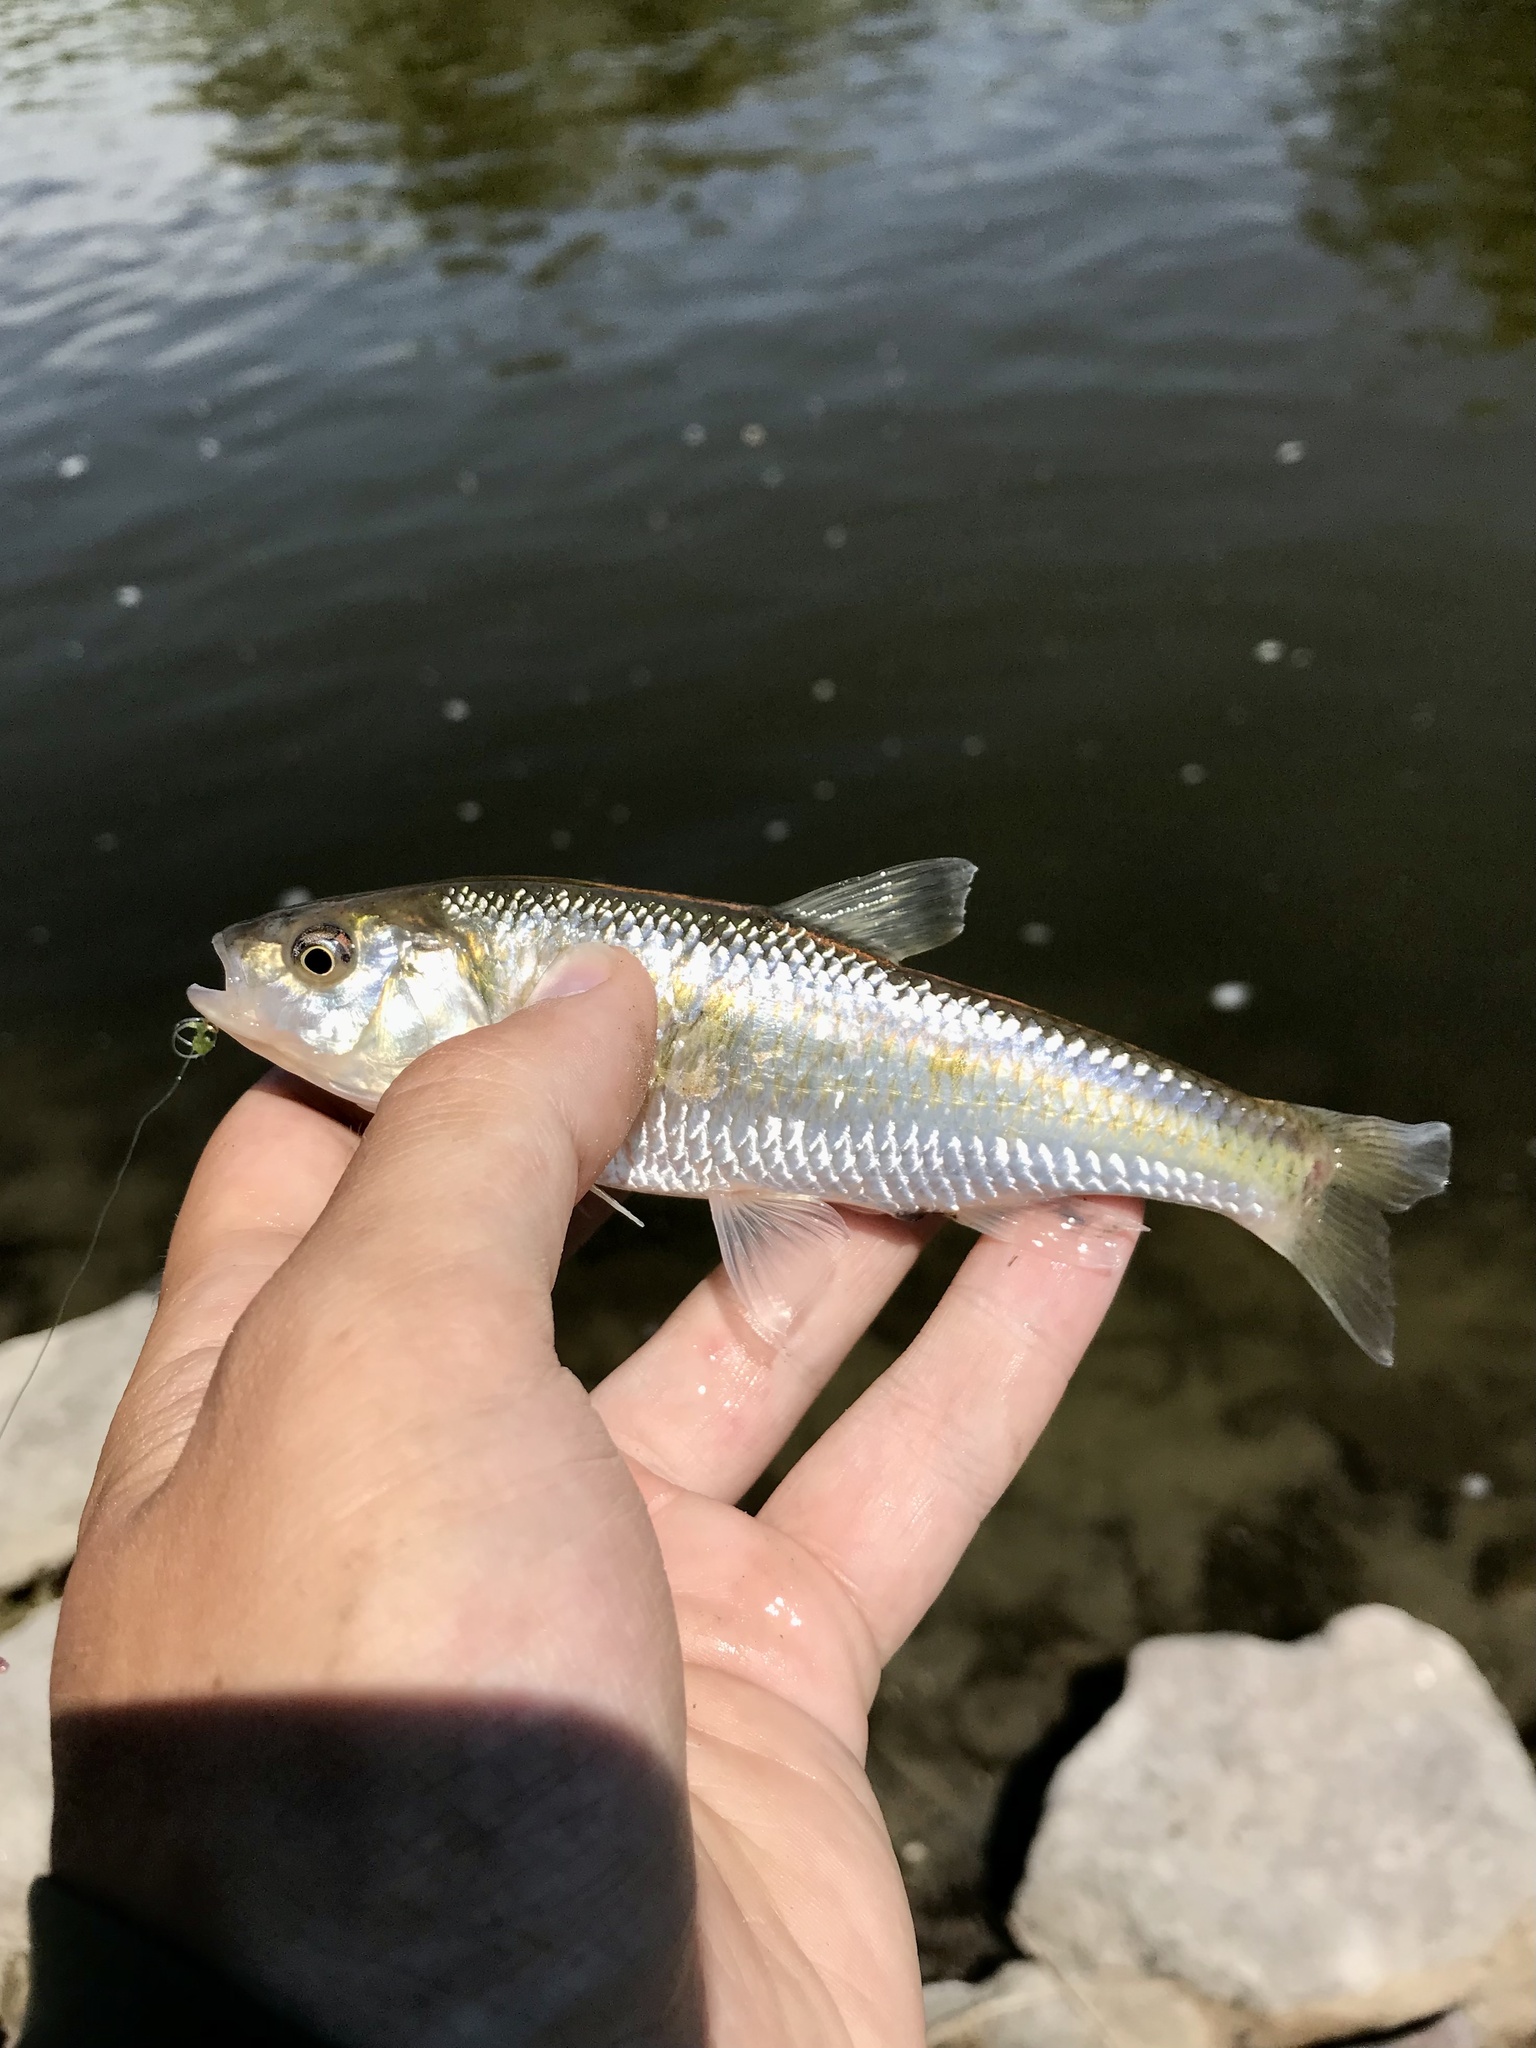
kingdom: Animalia
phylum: Chordata
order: Cypriniformes
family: Cyprinidae
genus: Luxilus
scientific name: Luxilus cornutus
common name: Common shiner
